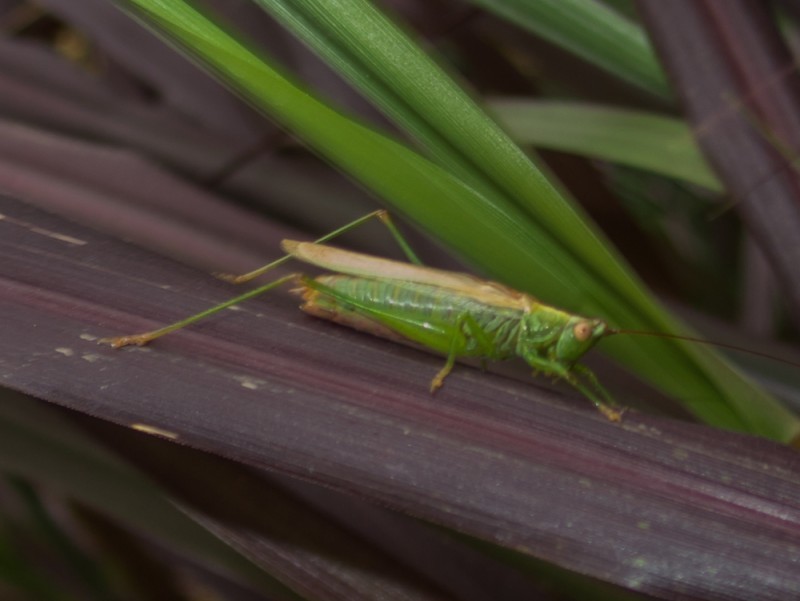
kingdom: Animalia
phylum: Arthropoda
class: Insecta
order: Orthoptera
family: Tettigoniidae
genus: Conocephalus
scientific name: Conocephalus fuscus
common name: Long-winged conehead
